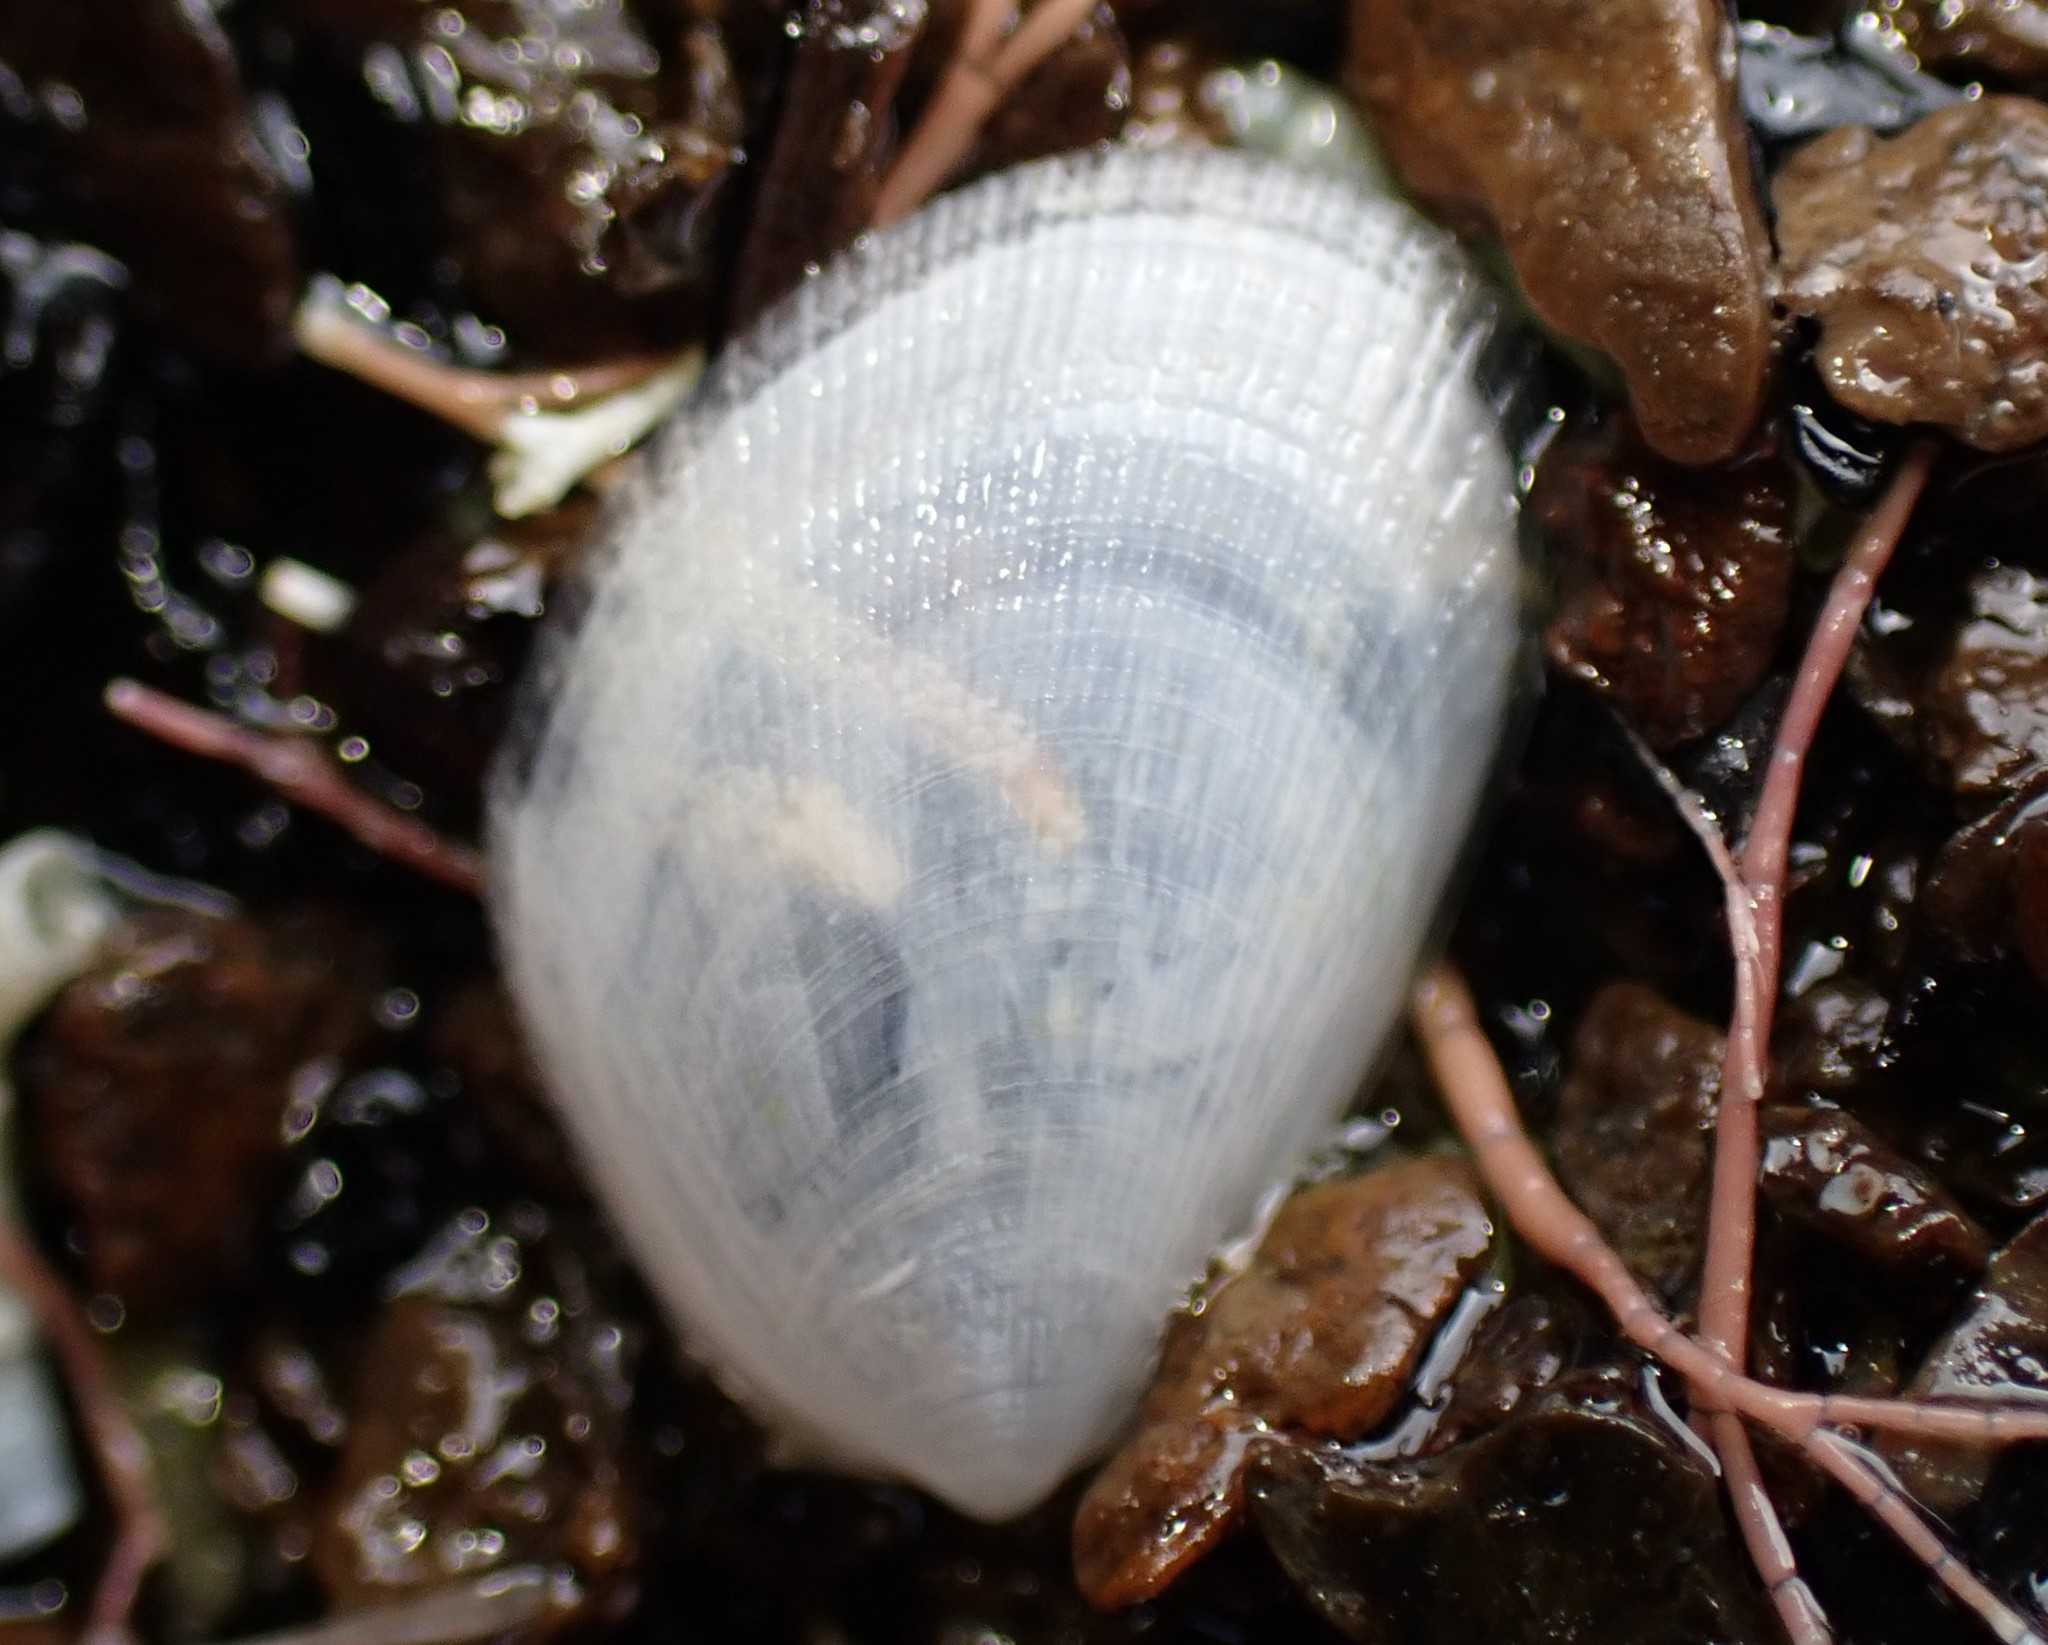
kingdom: Animalia
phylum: Mollusca
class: Bivalvia
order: Limida
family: Limidae
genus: Limaria
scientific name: Limaria orientalis
